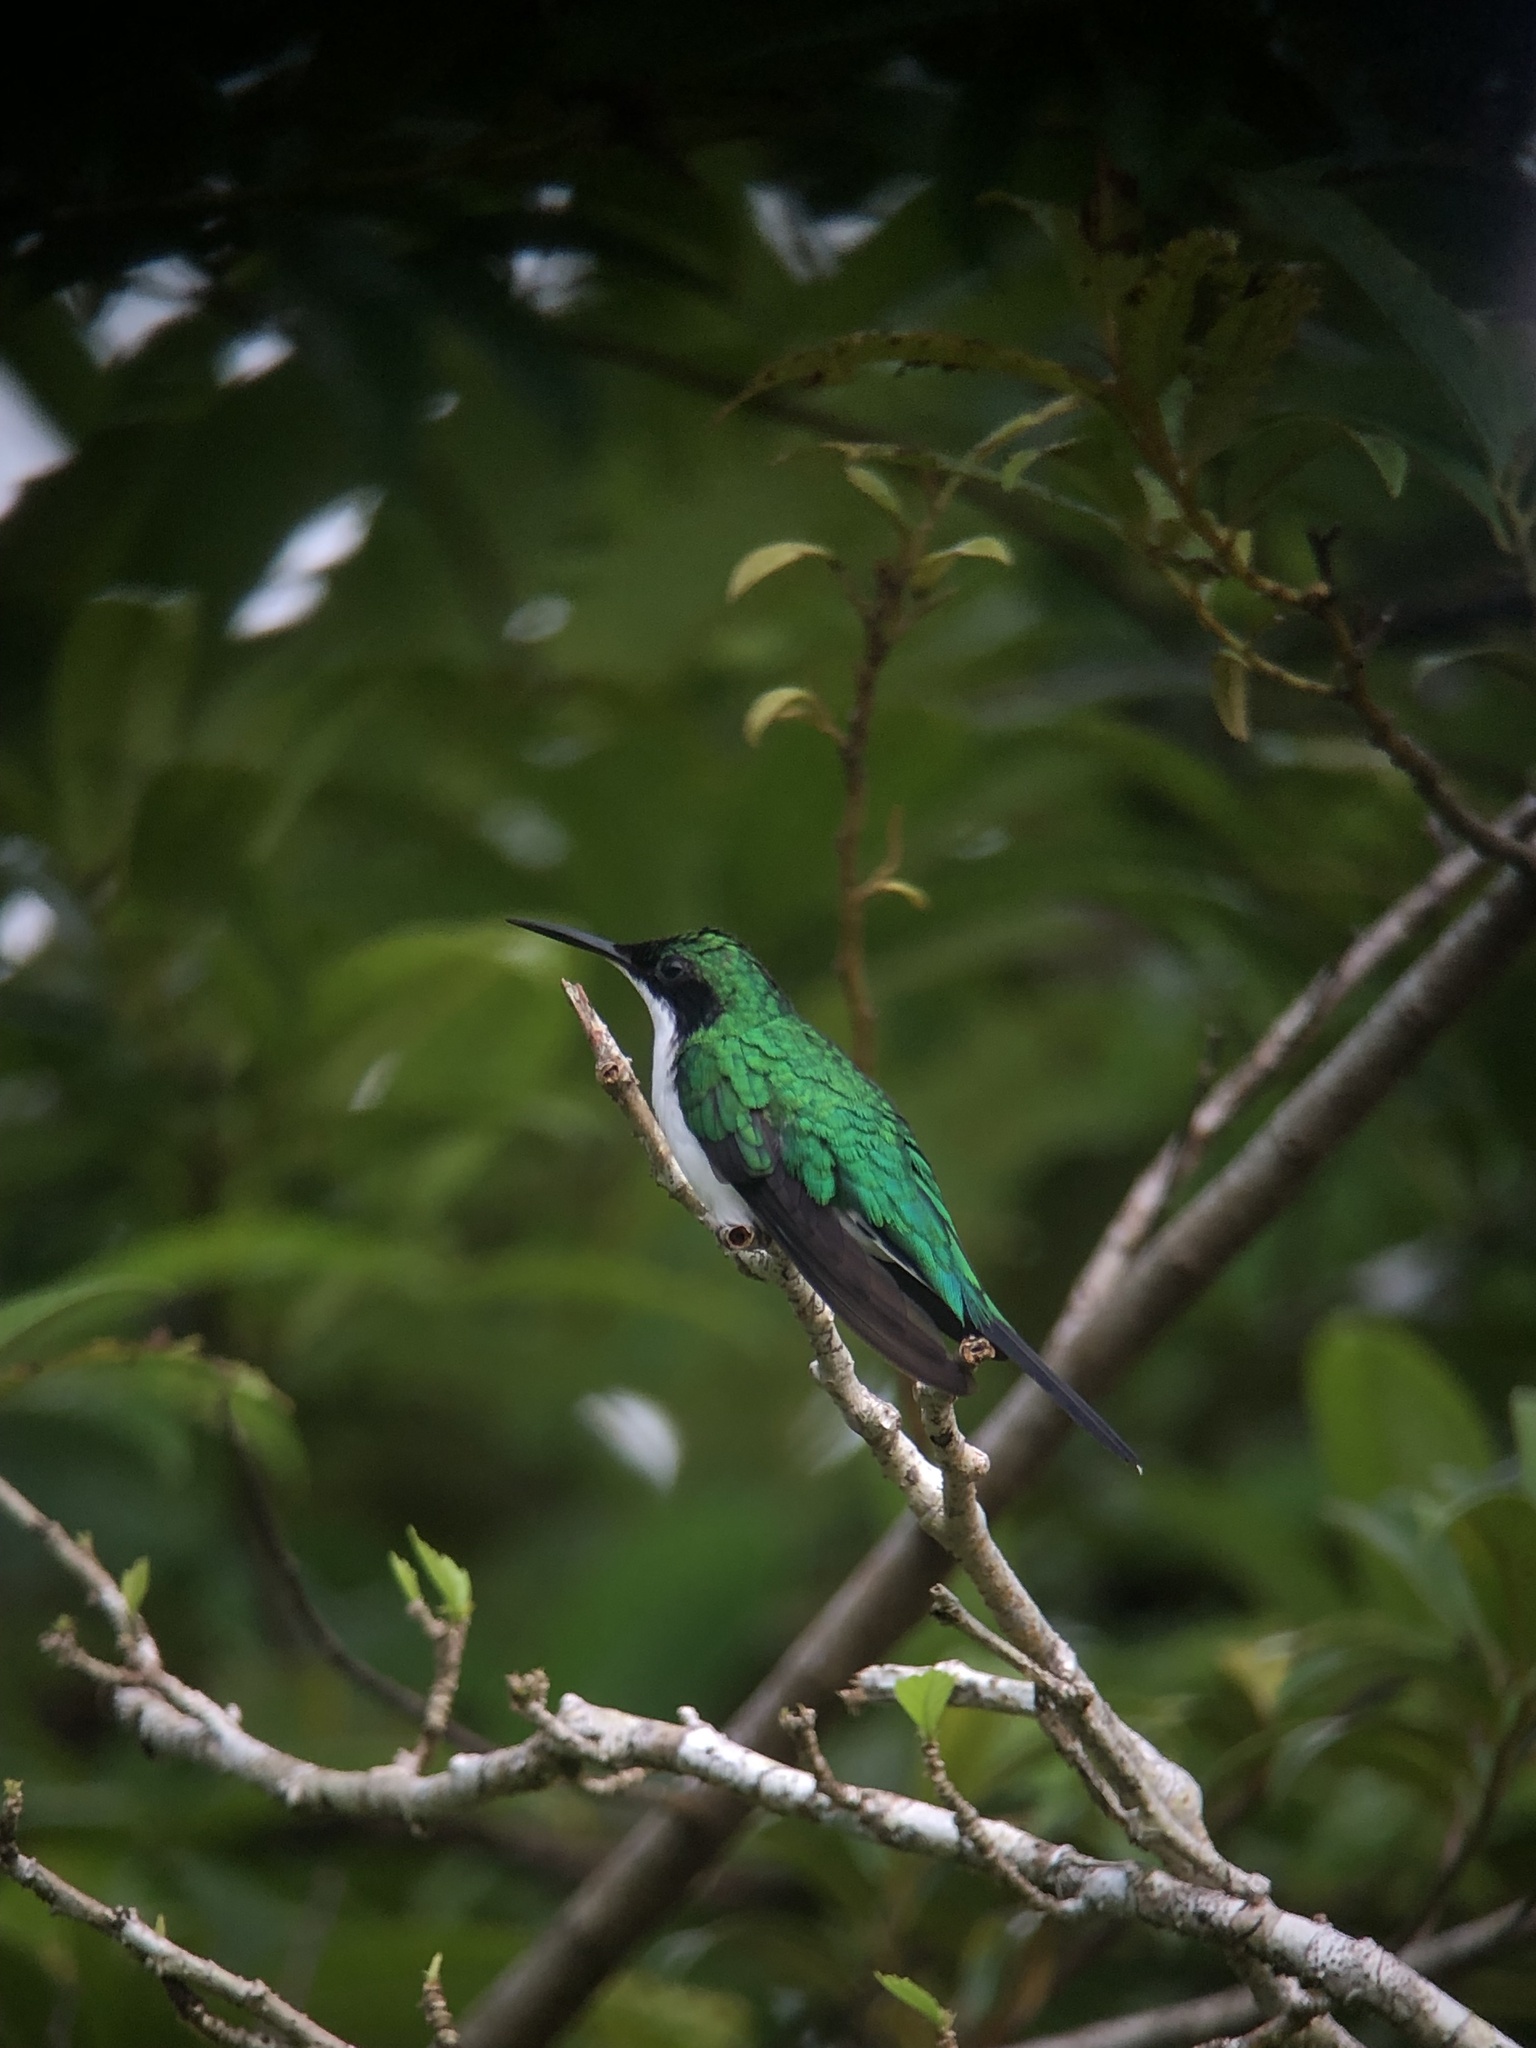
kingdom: Animalia
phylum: Chordata
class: Aves
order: Apodiformes
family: Trochilidae
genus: Heliothryx
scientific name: Heliothryx barroti
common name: Purple-crowned fairy
